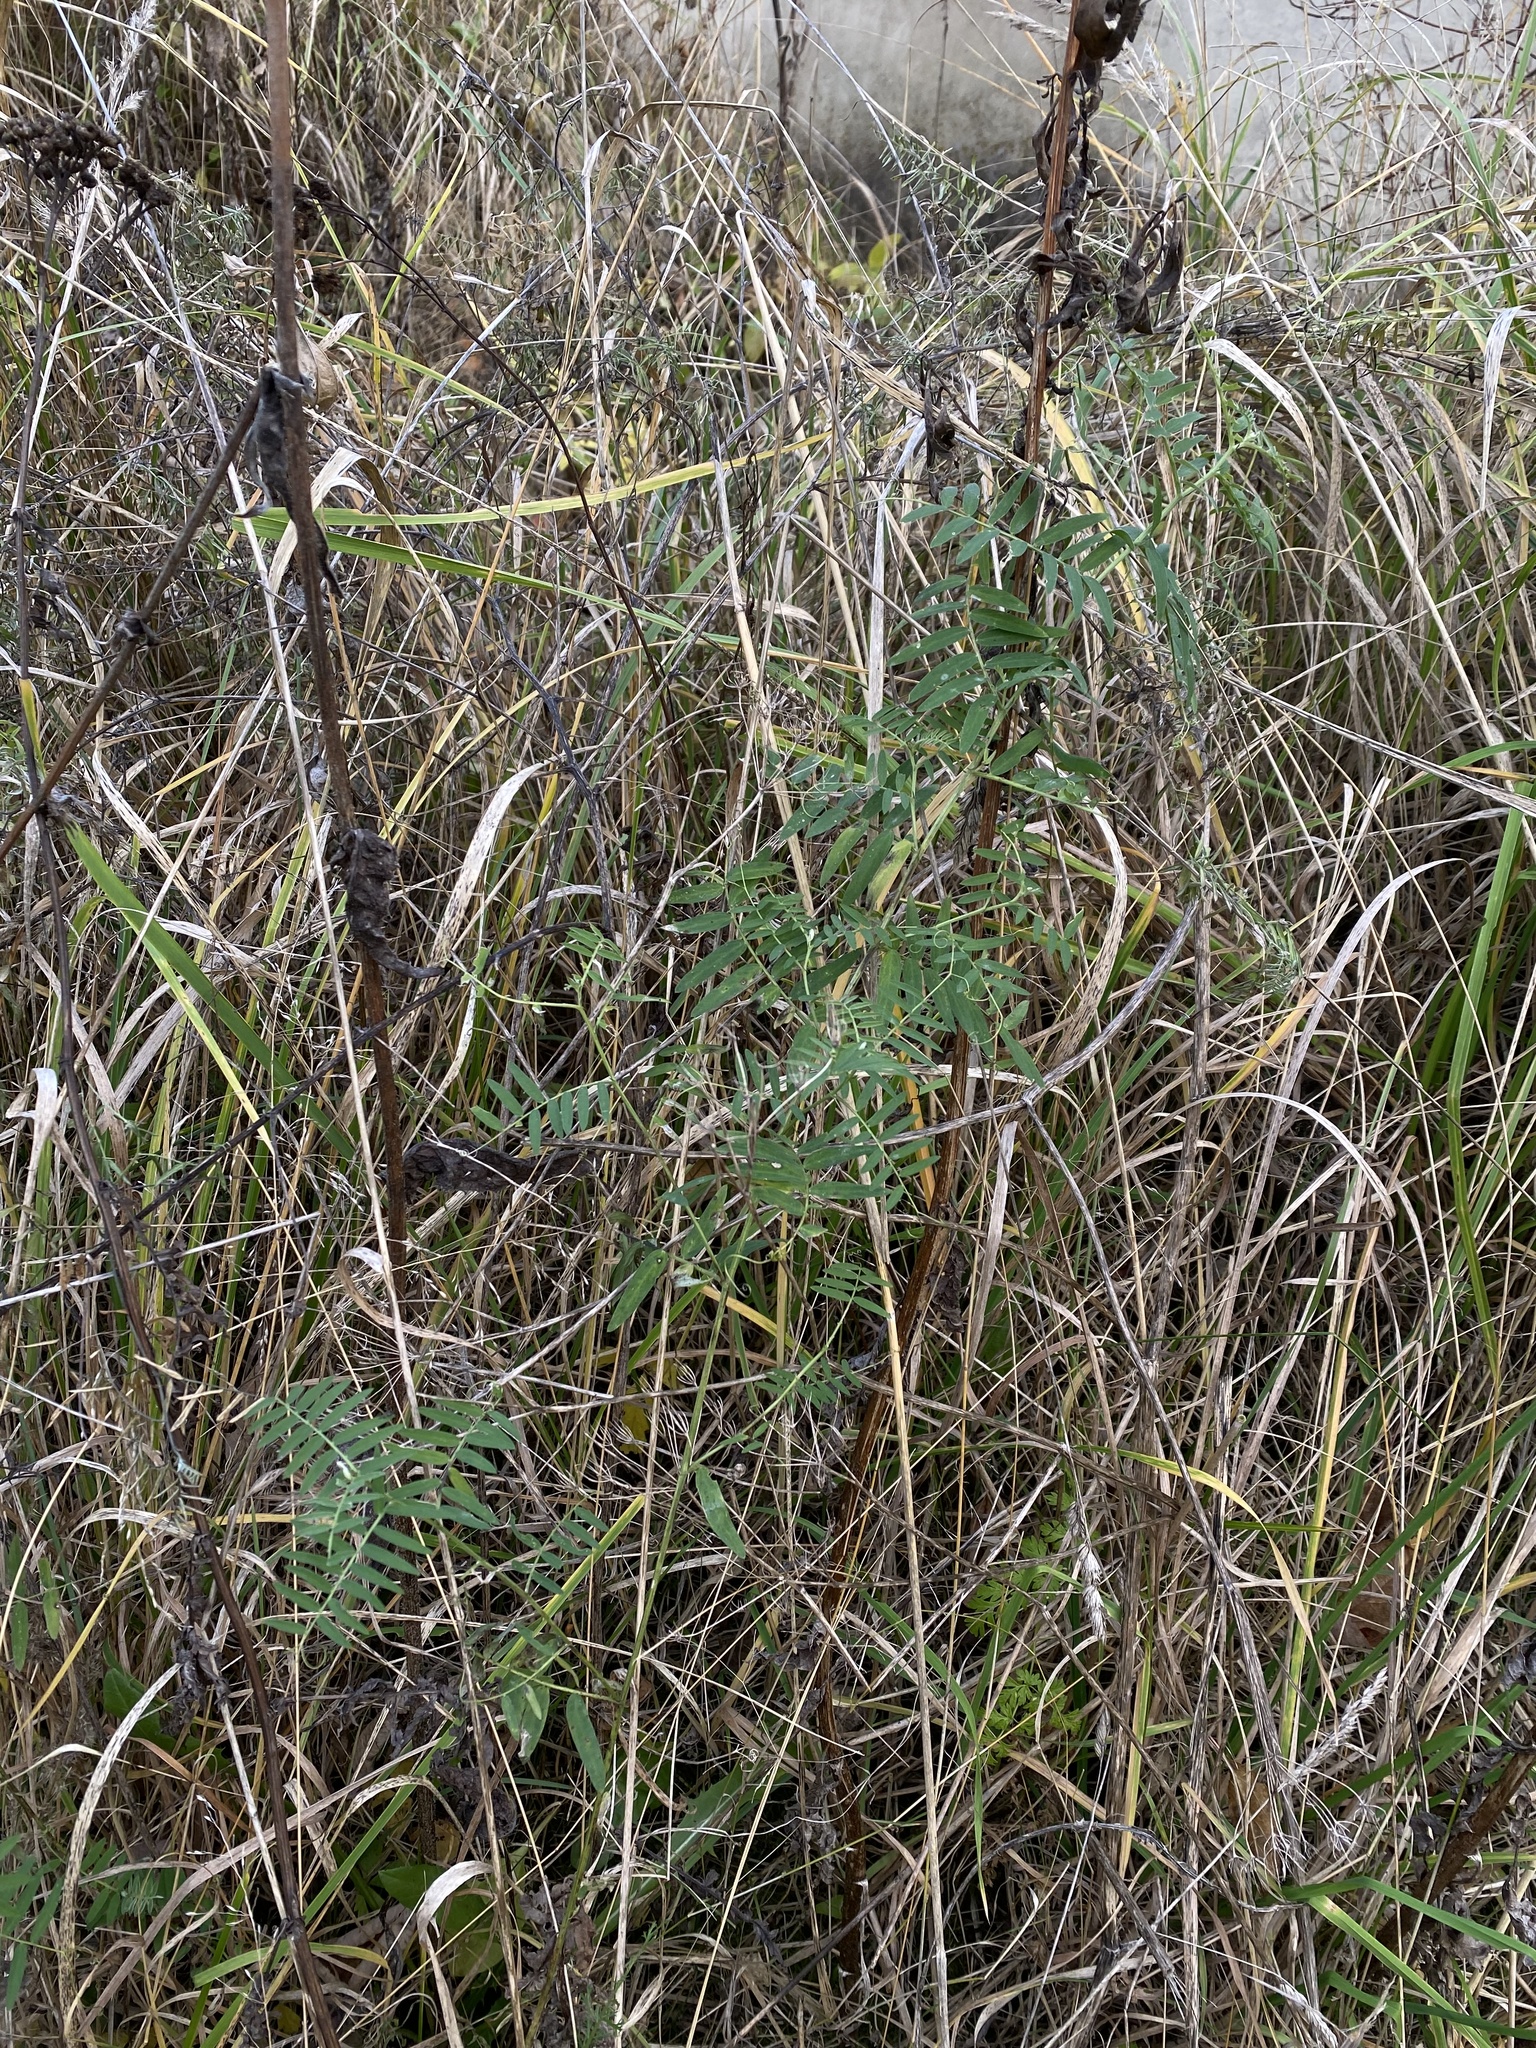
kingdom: Plantae
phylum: Tracheophyta
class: Magnoliopsida
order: Fabales
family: Fabaceae
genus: Vicia
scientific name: Vicia cracca
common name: Bird vetch
